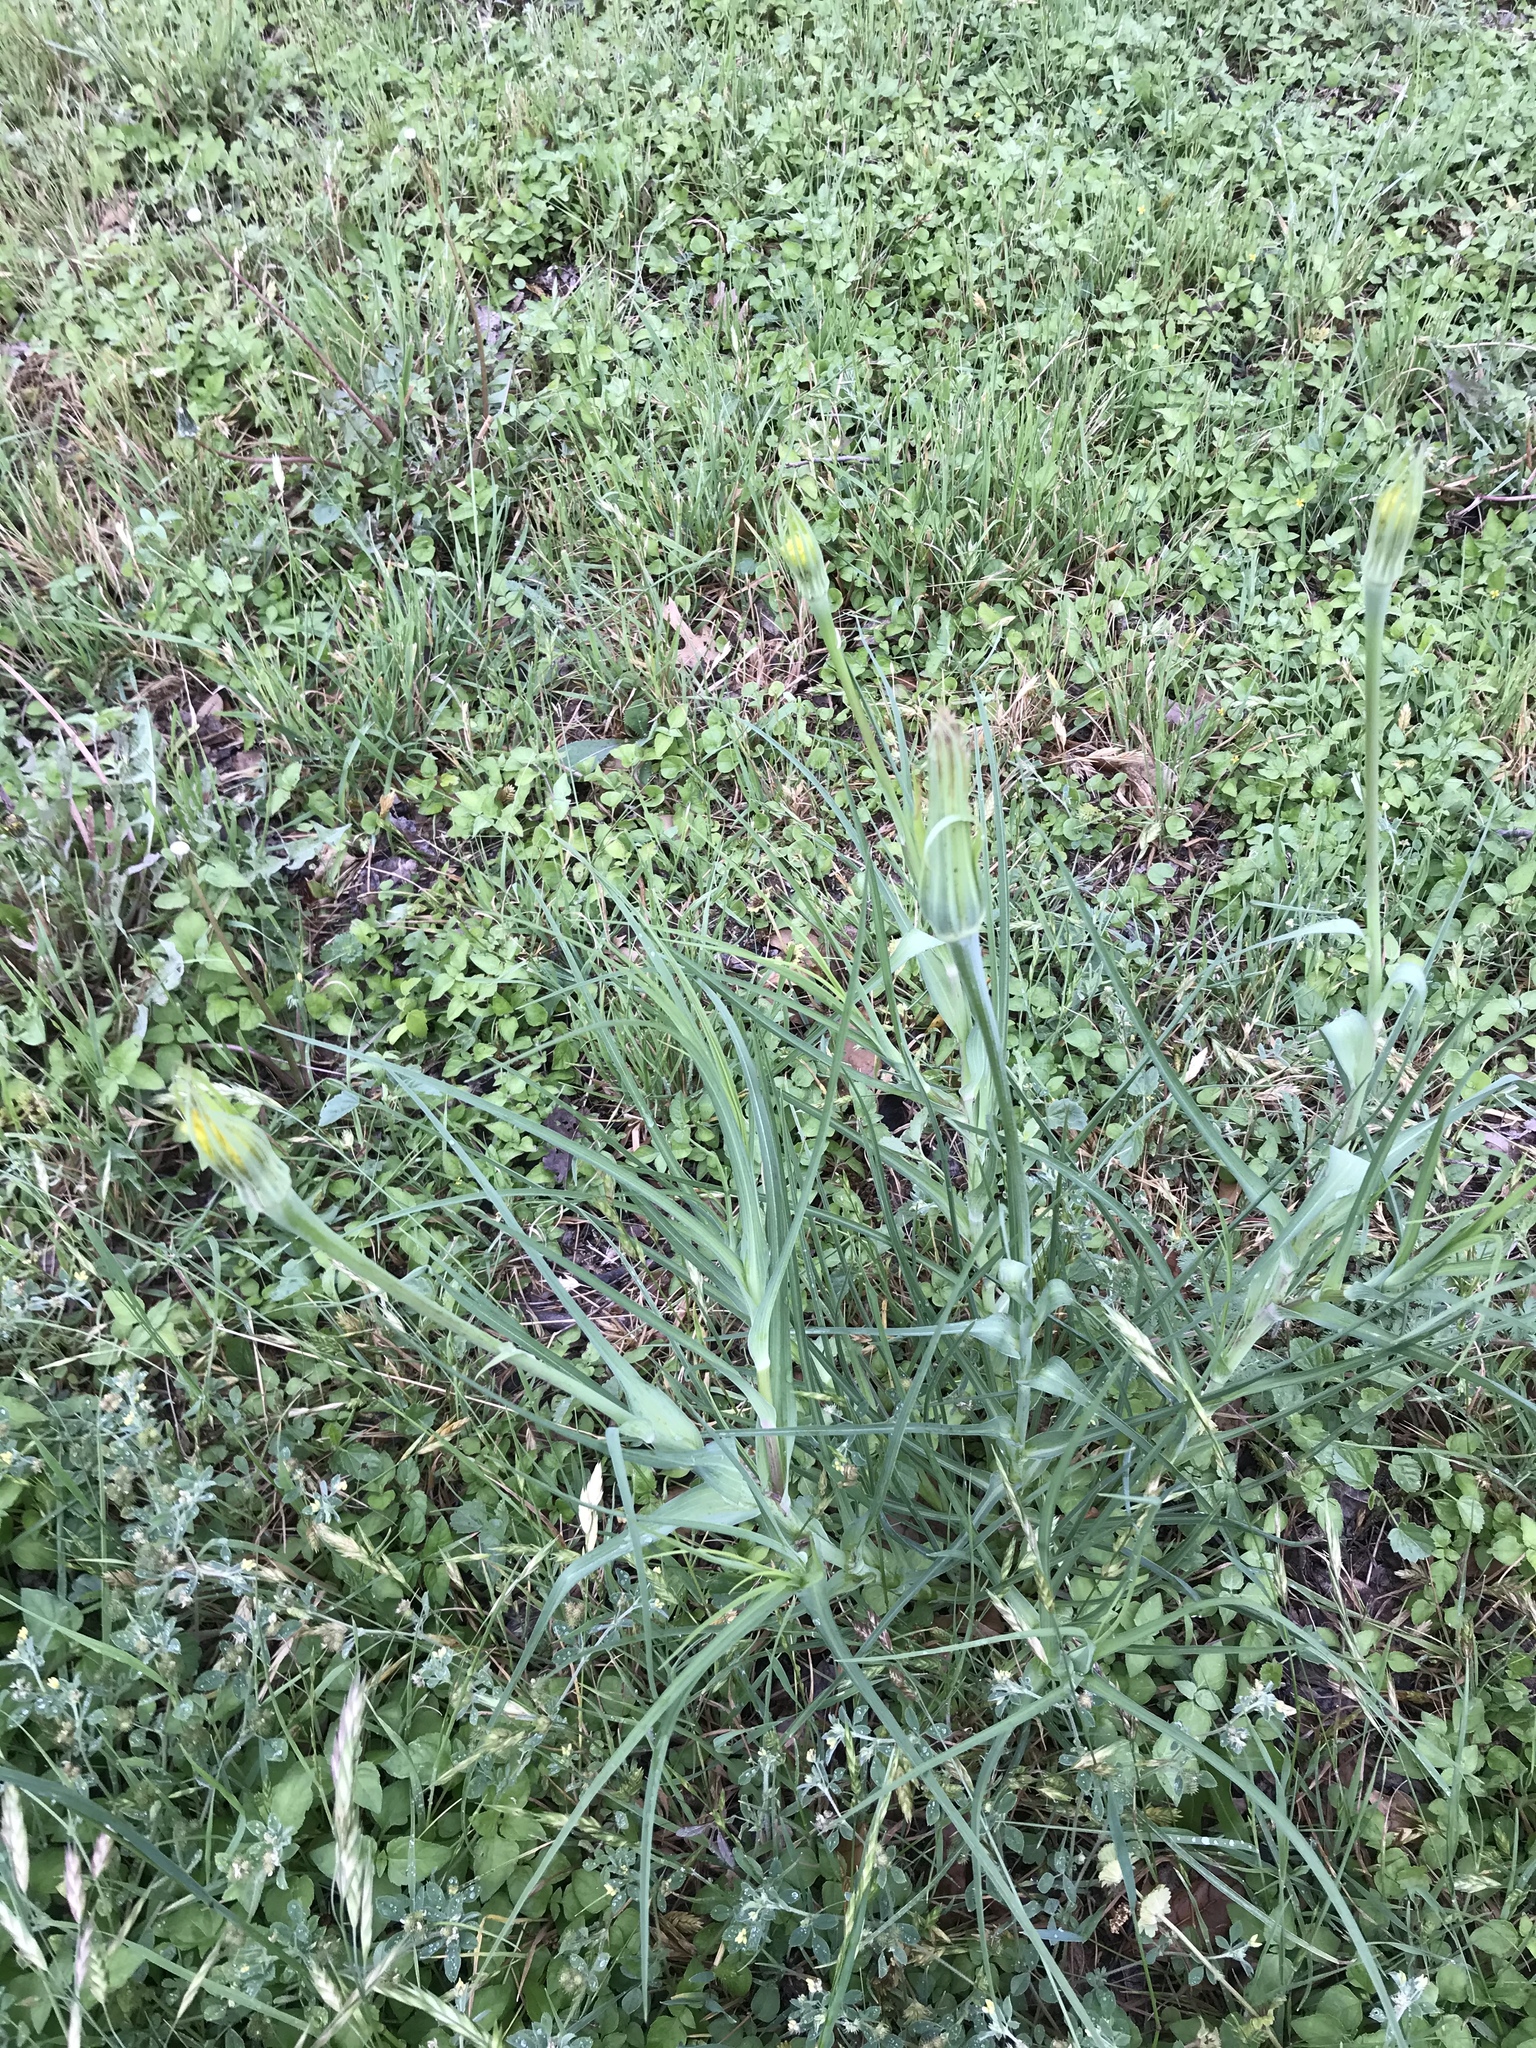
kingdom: Plantae
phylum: Tracheophyta
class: Magnoliopsida
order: Asterales
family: Asteraceae
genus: Tragopogon
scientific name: Tragopogon dubius
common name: Yellow salsify
